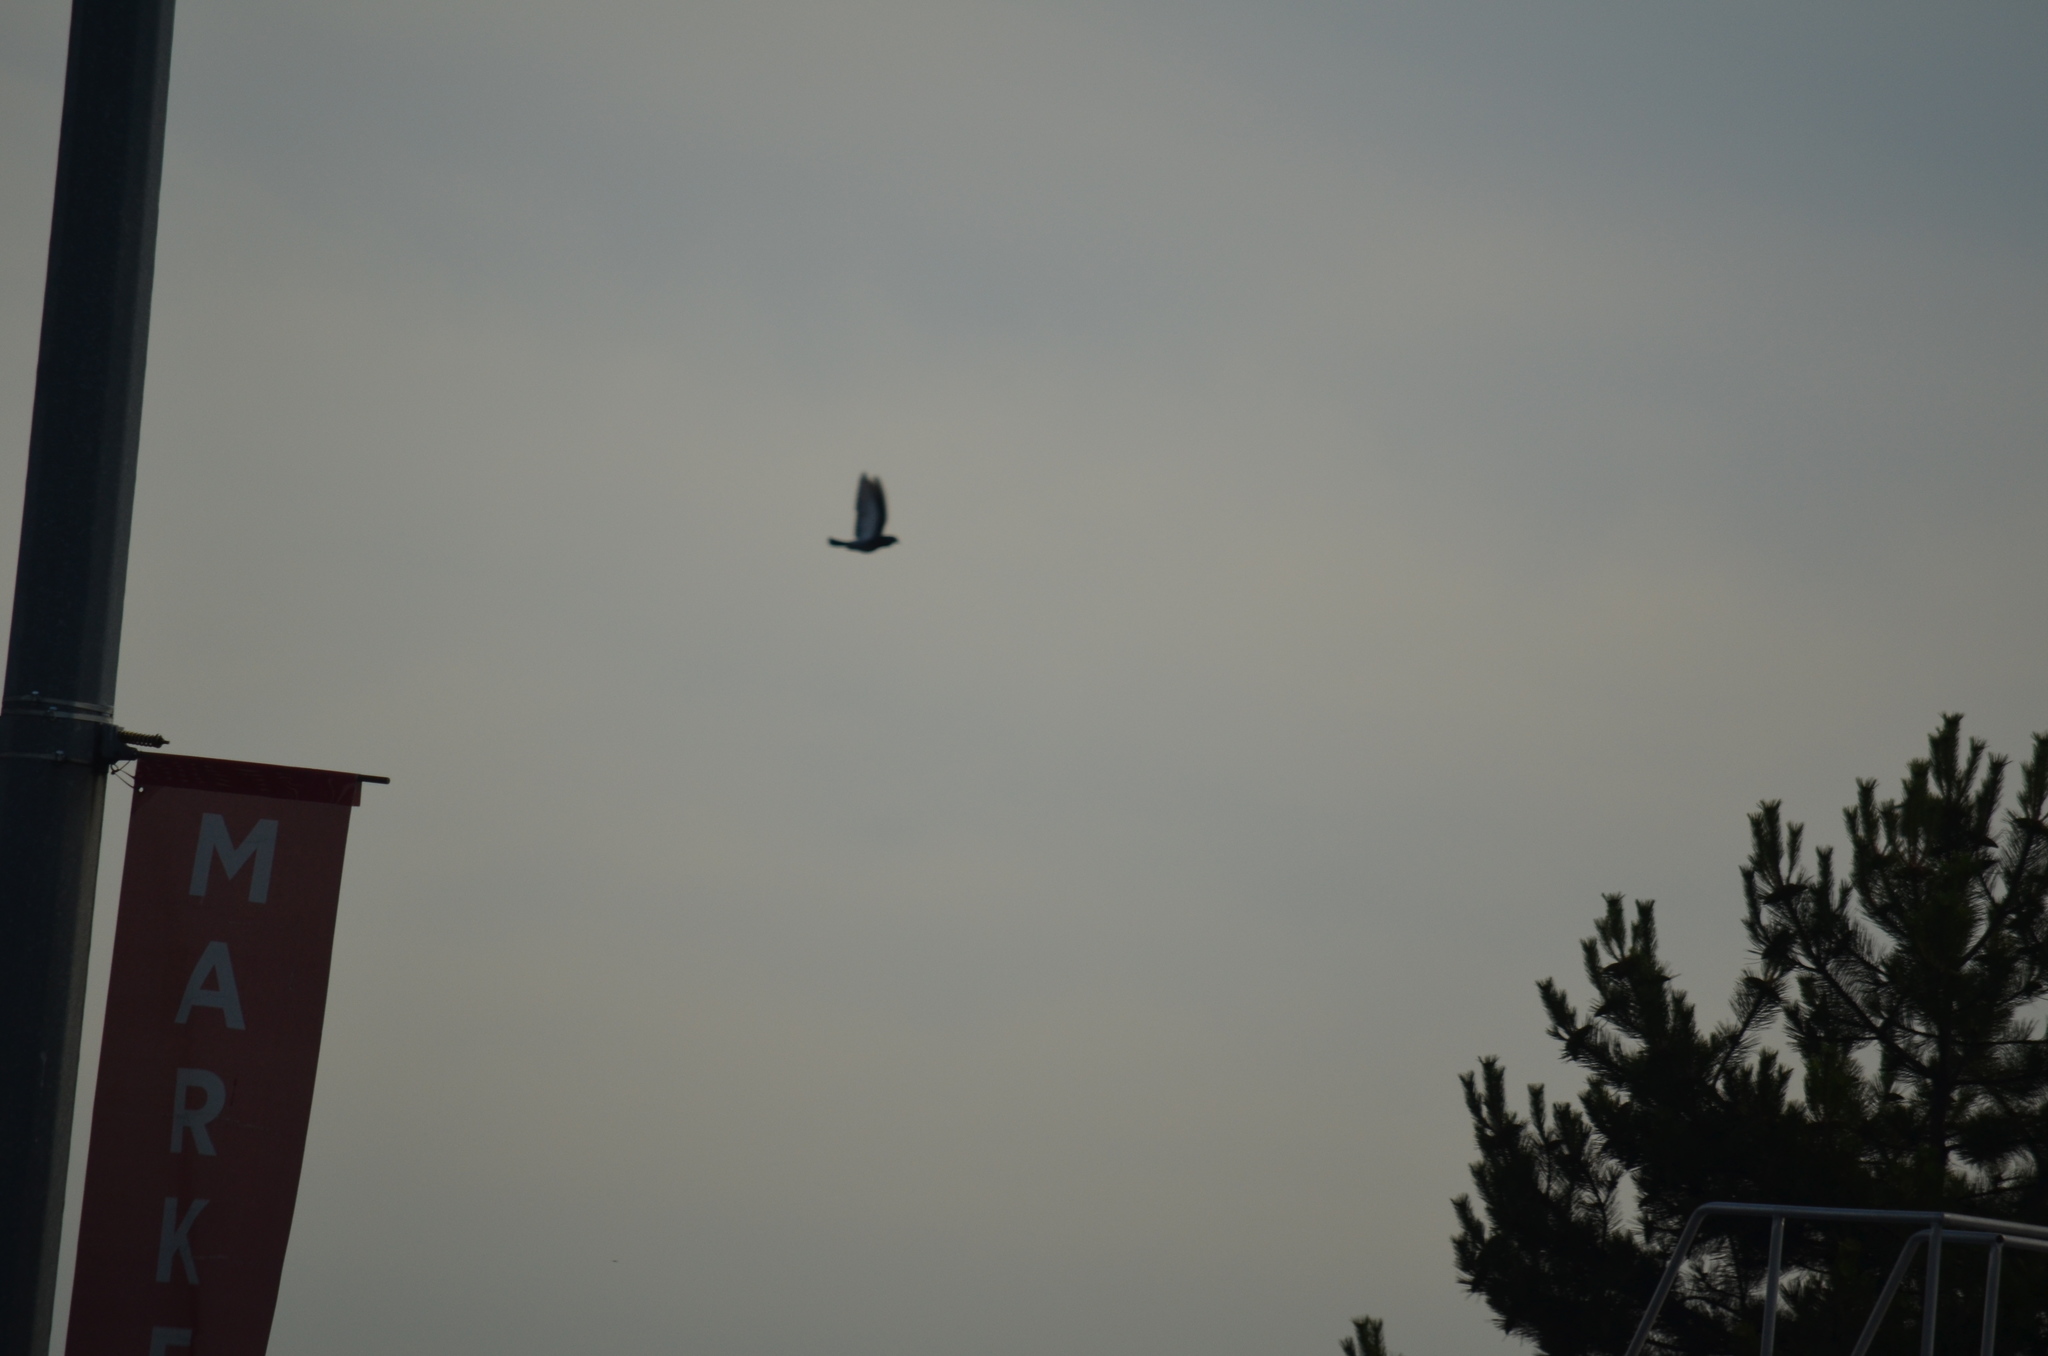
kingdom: Animalia
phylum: Chordata
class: Aves
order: Columbiformes
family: Columbidae
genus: Columba
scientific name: Columba livia
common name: Rock pigeon
